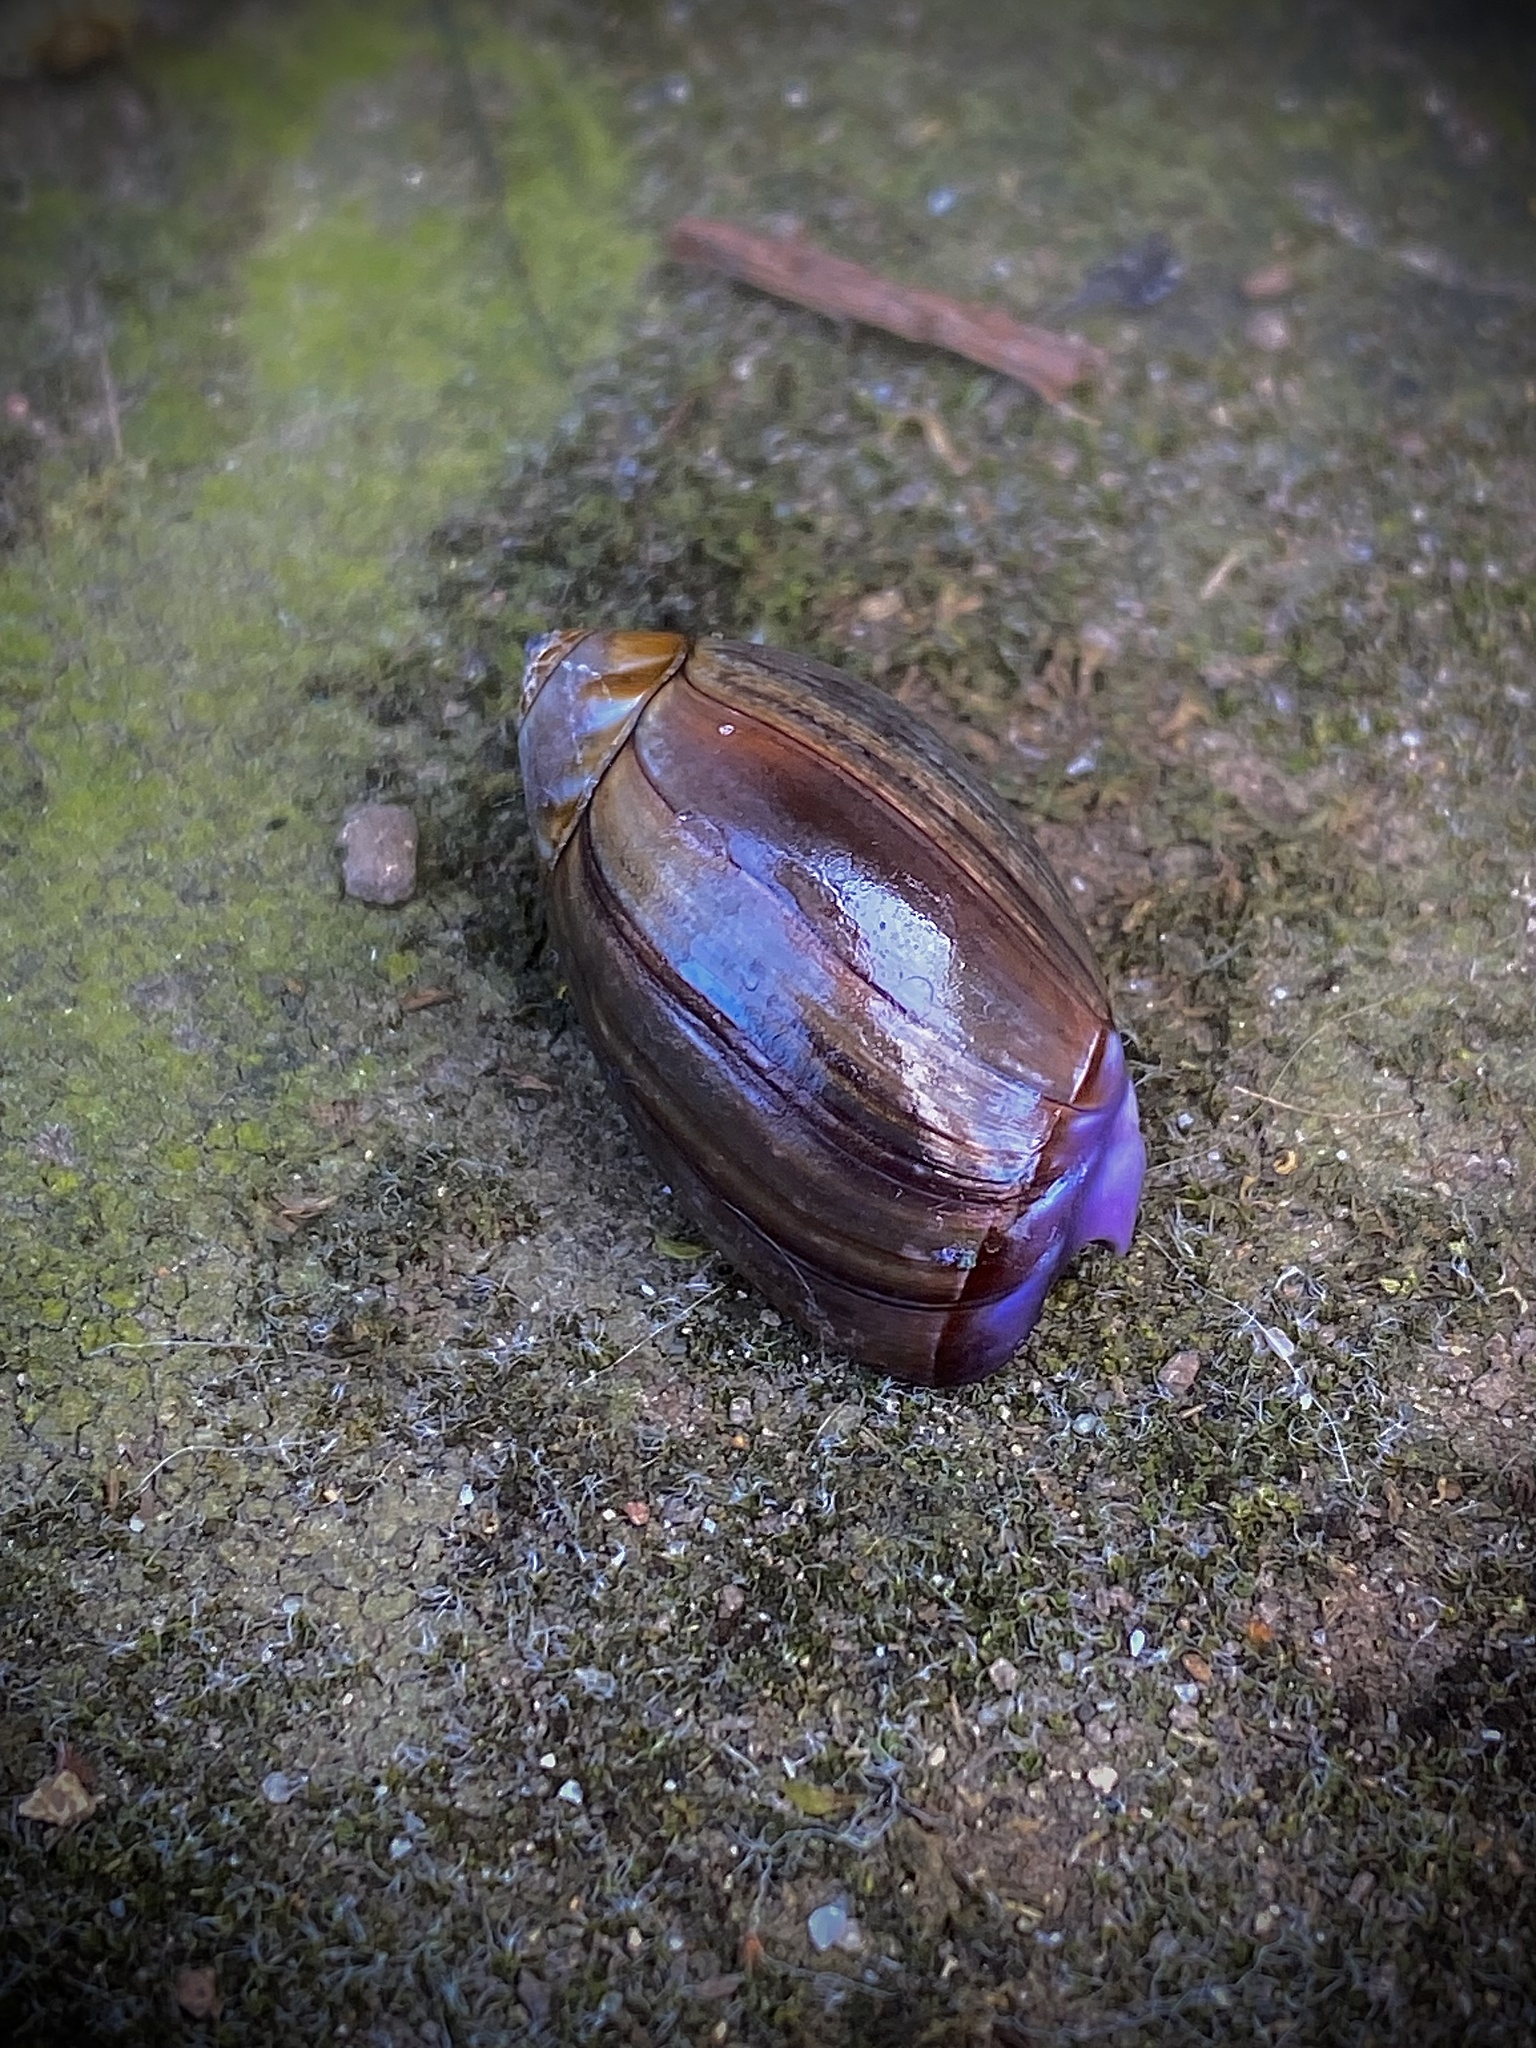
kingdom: Animalia
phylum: Mollusca
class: Gastropoda
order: Neogastropoda
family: Olividae
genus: Callianax
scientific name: Callianax biplicata
